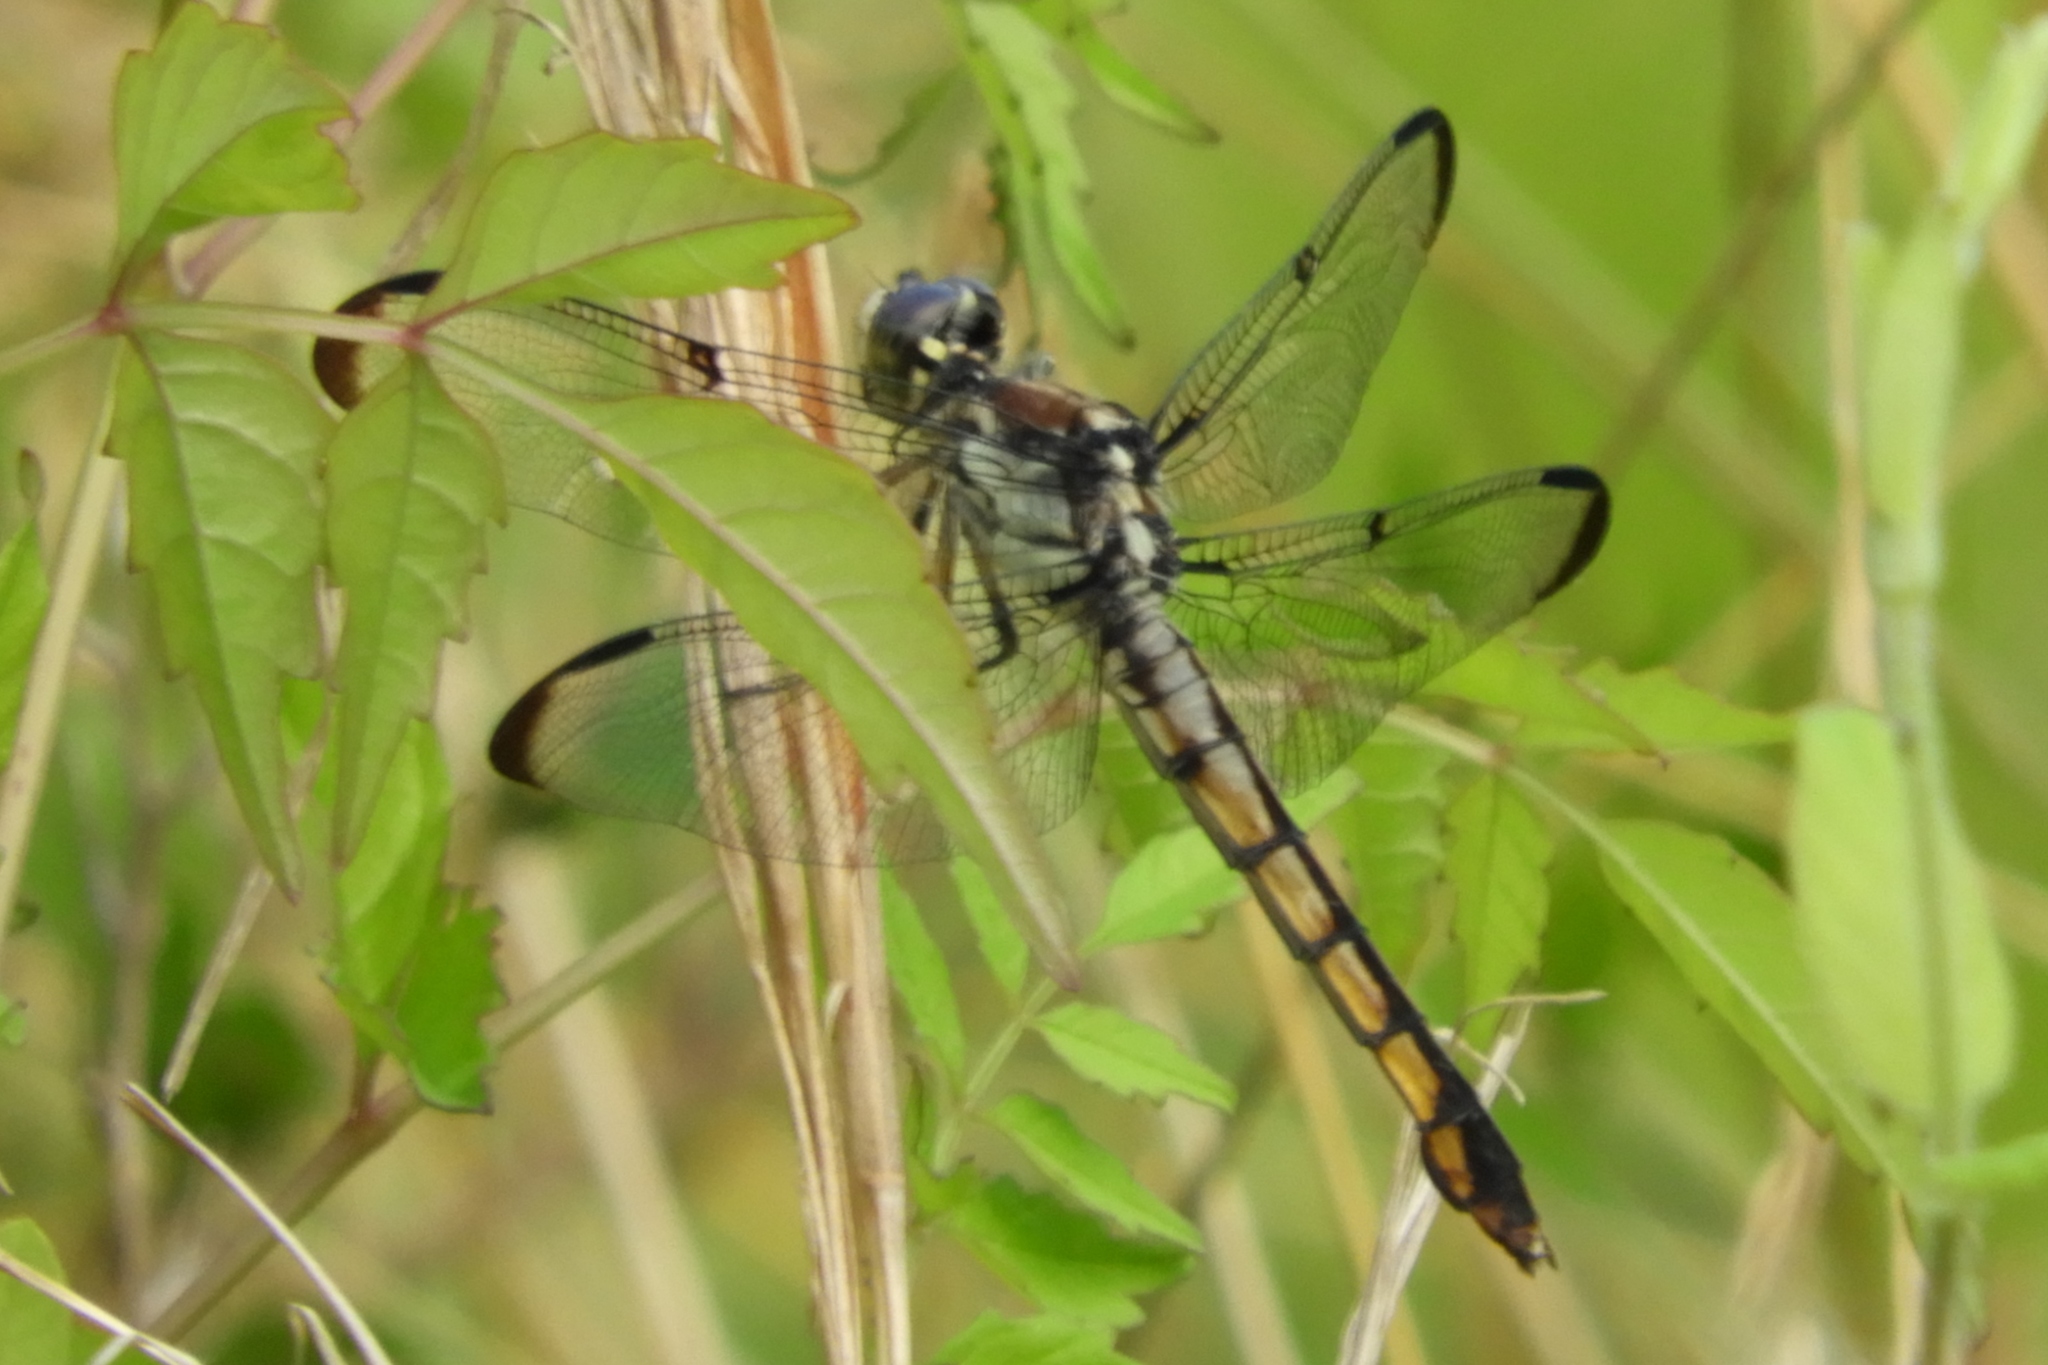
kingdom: Animalia
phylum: Arthropoda
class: Insecta
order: Odonata
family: Libellulidae
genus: Libellula
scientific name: Libellula vibrans
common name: Great blue skimmer
